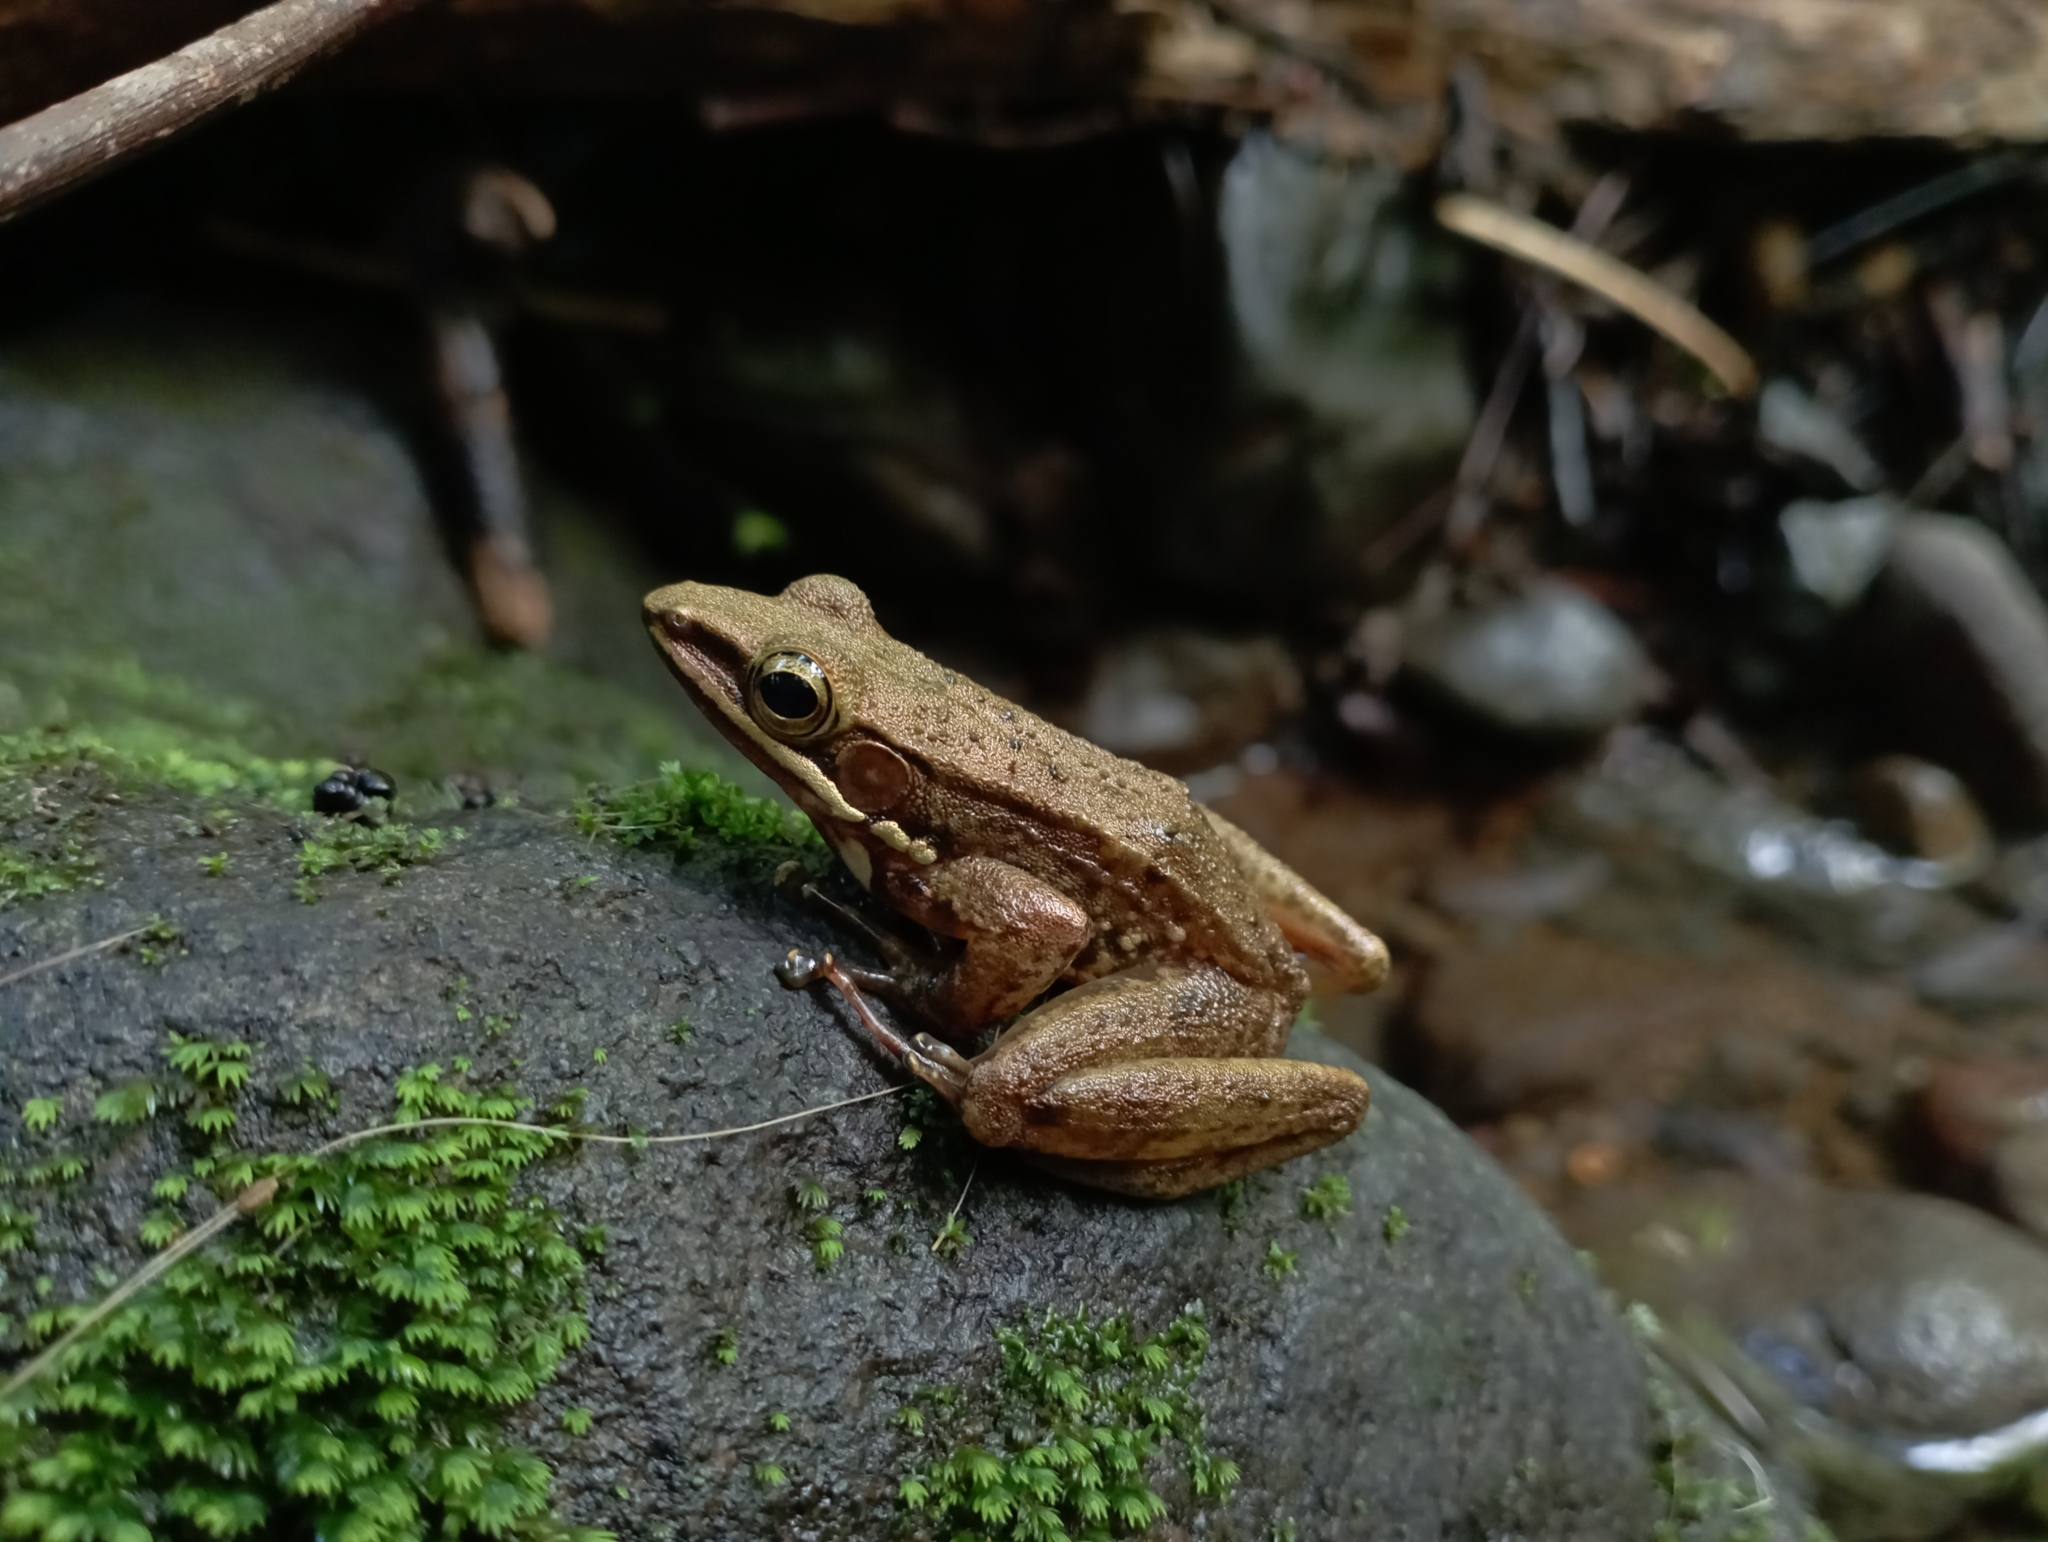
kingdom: Animalia
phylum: Chordata
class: Amphibia
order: Anura
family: Ranidae
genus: Chalcorana
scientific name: Chalcorana chalconota
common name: Schlegel's frog
